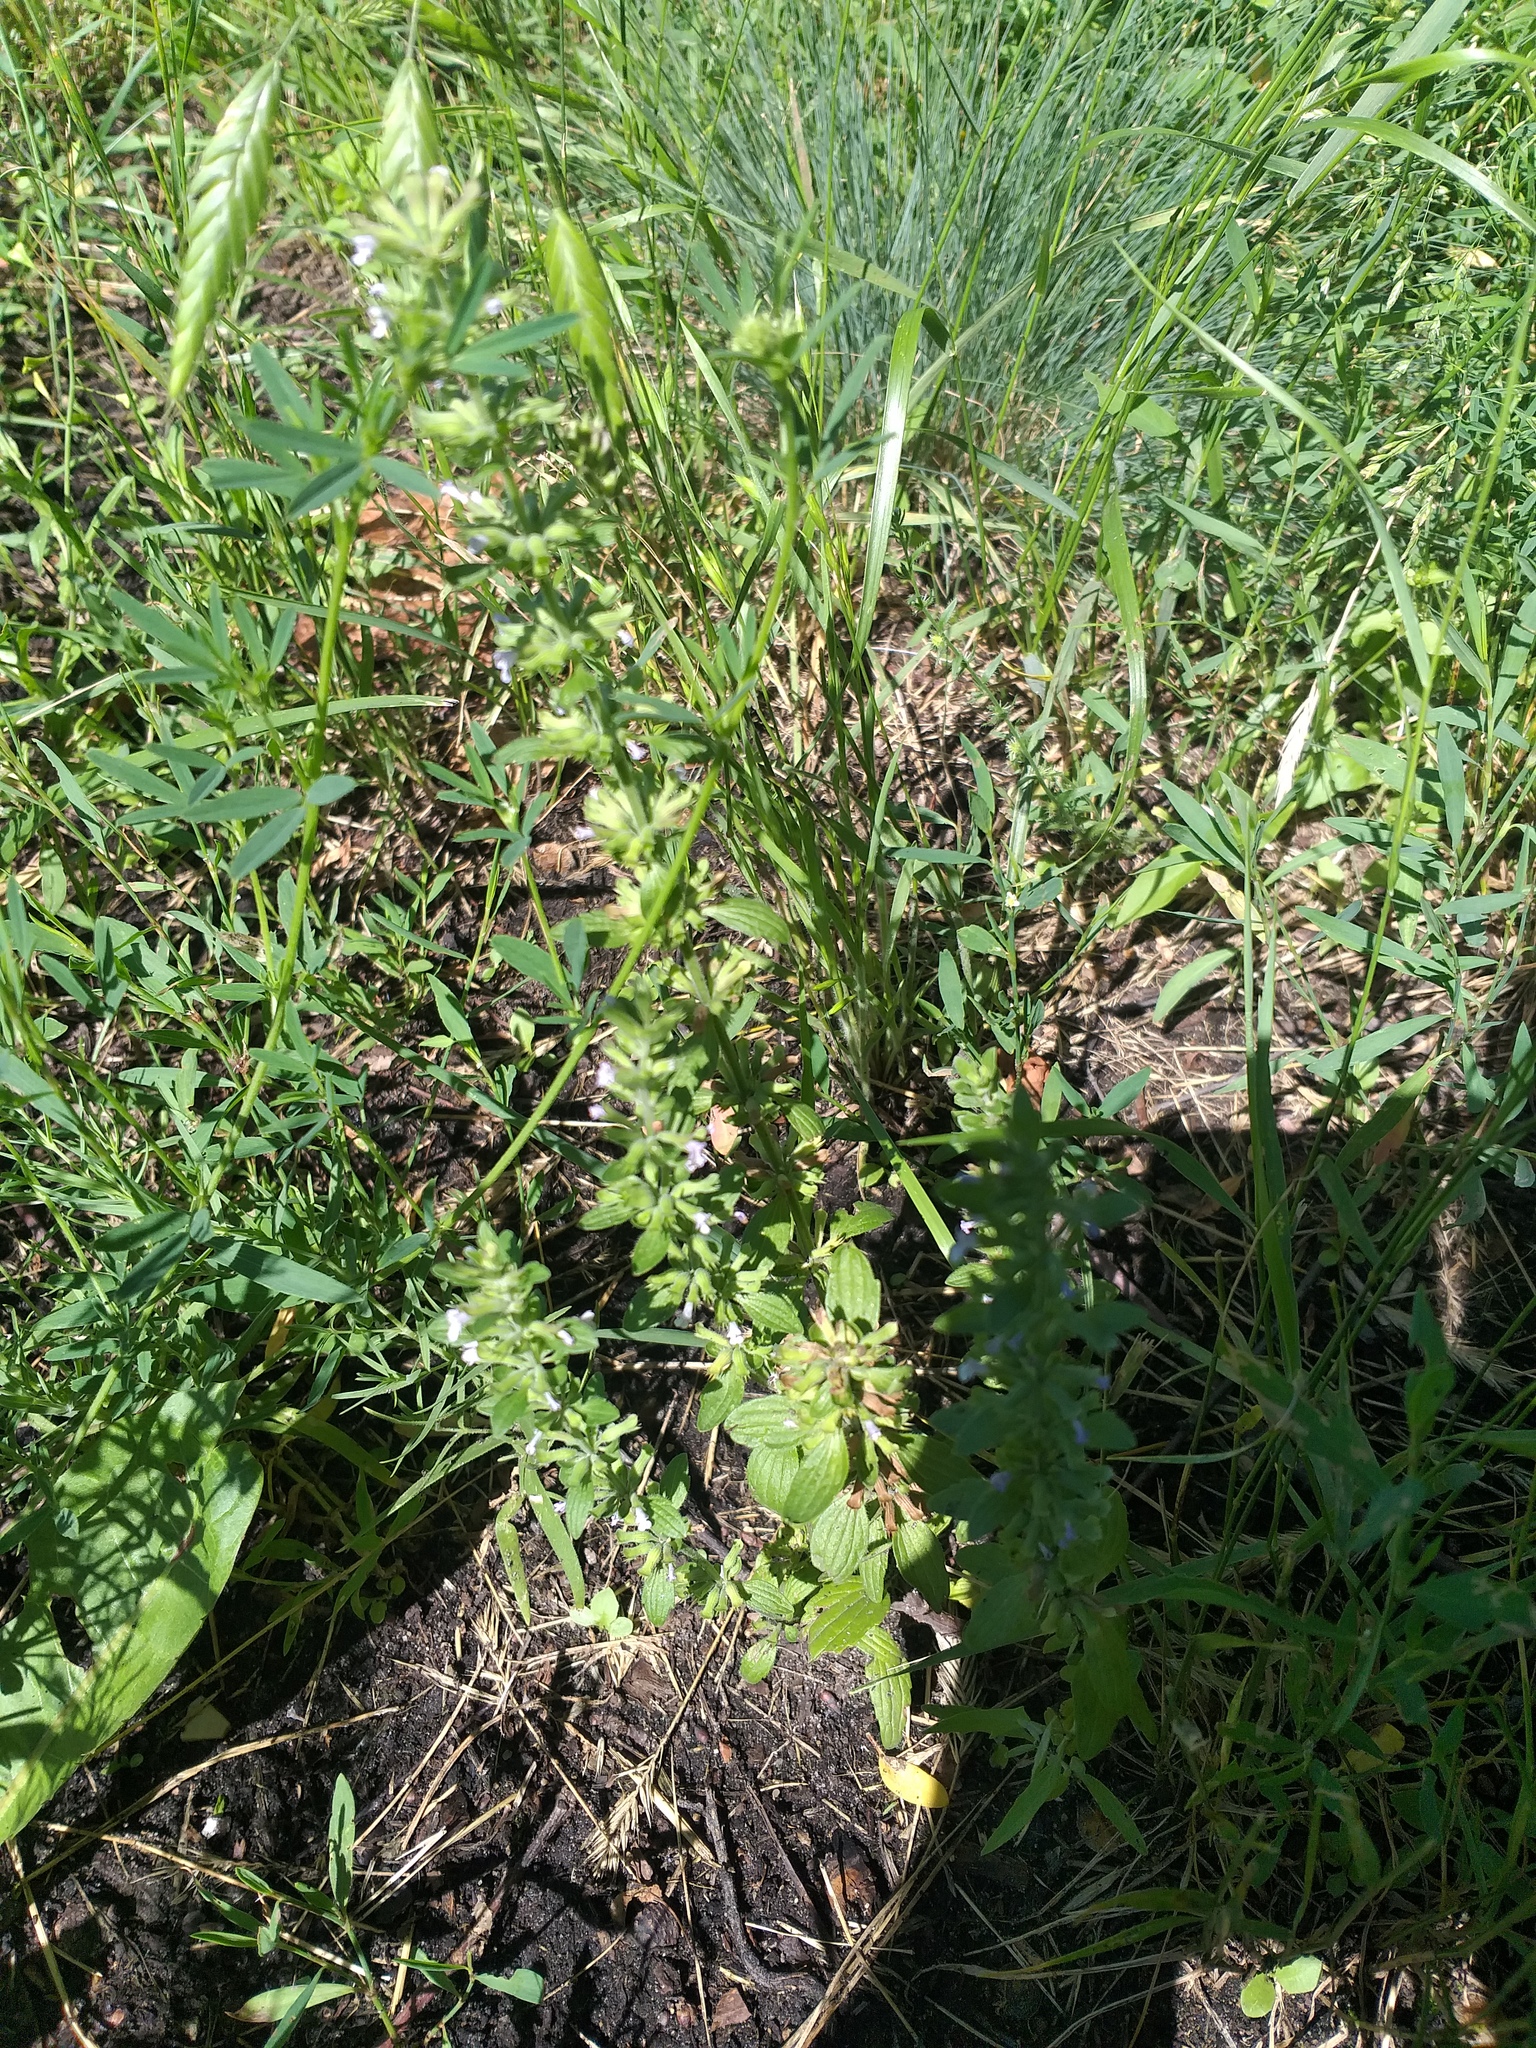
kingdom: Plantae
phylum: Tracheophyta
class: Magnoliopsida
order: Lamiales
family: Lamiaceae
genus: Dracocephalum
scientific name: Dracocephalum thymiflorum
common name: Thymeleaf dragonhead
